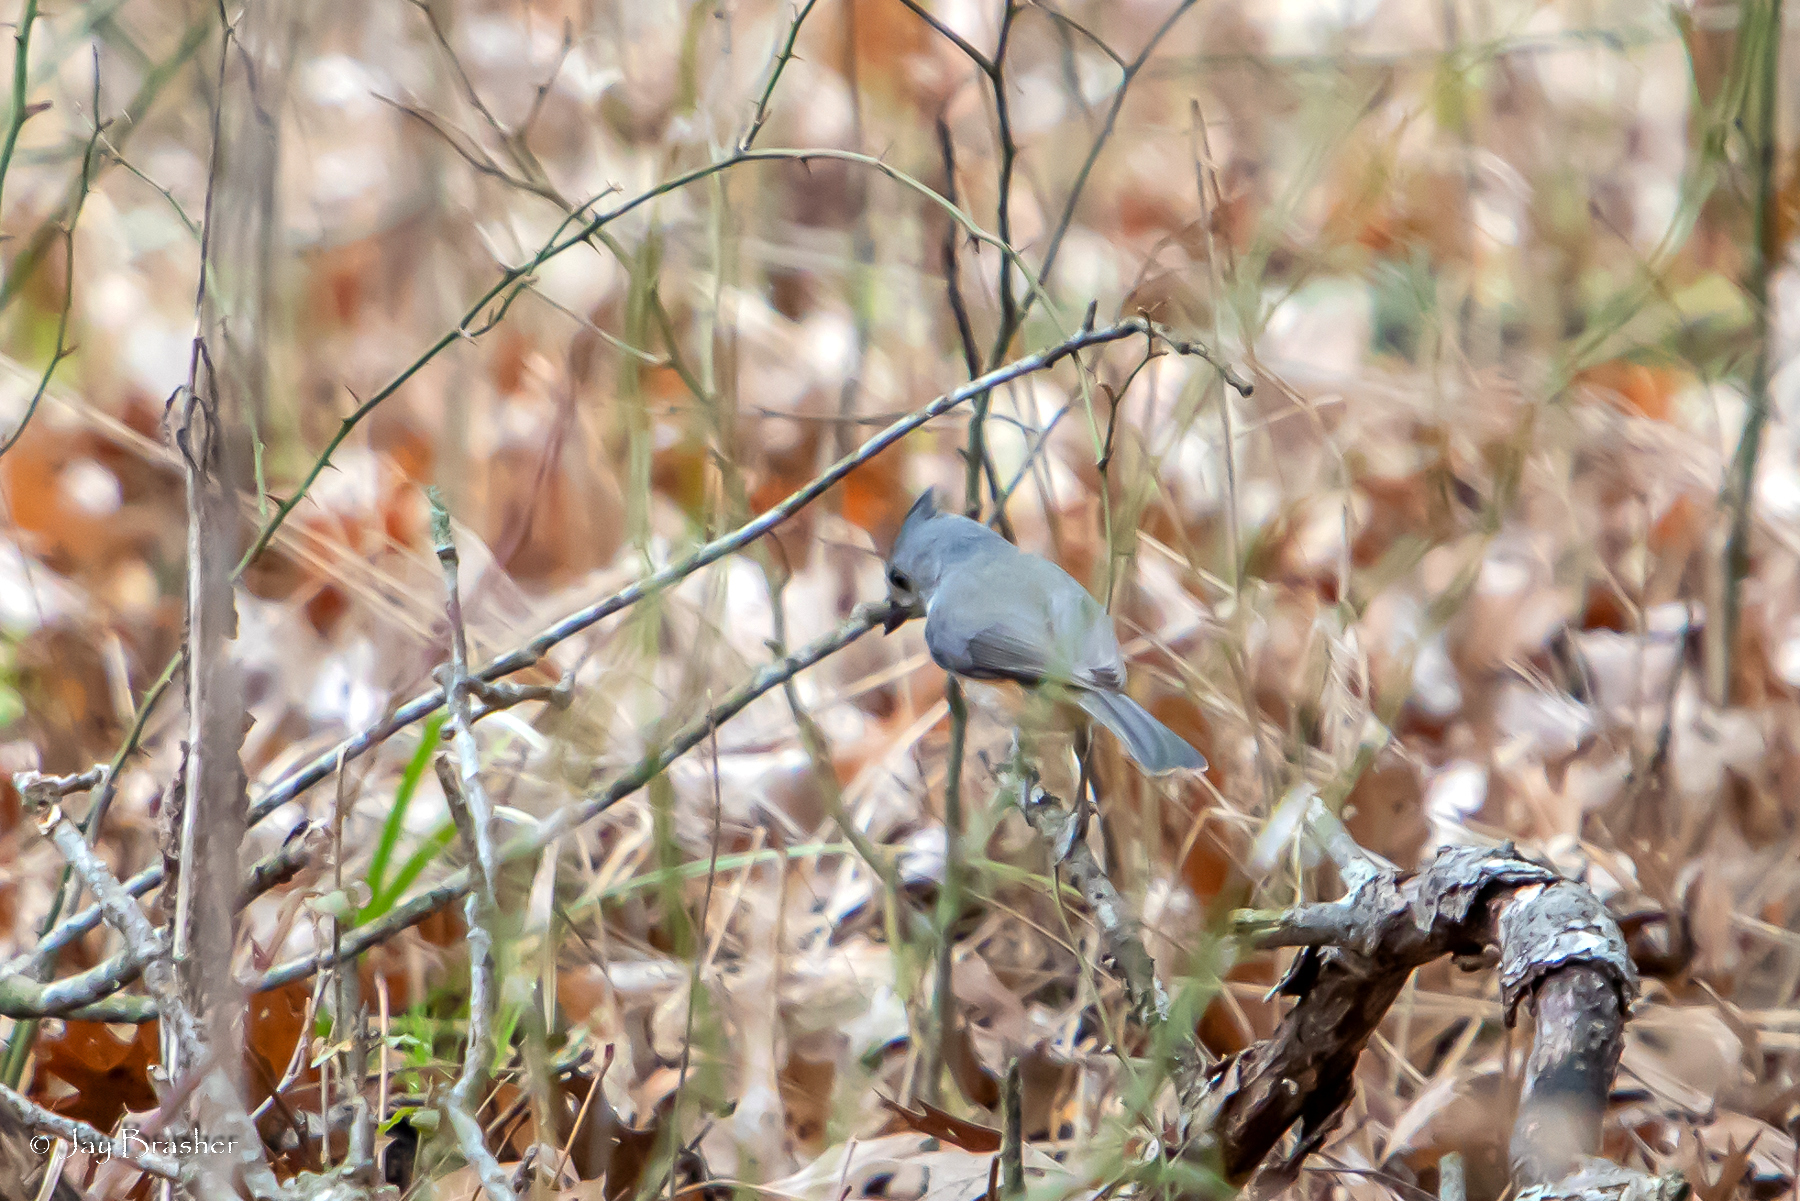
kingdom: Animalia
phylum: Chordata
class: Aves
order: Passeriformes
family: Paridae
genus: Baeolophus
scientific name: Baeolophus bicolor
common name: Tufted titmouse
